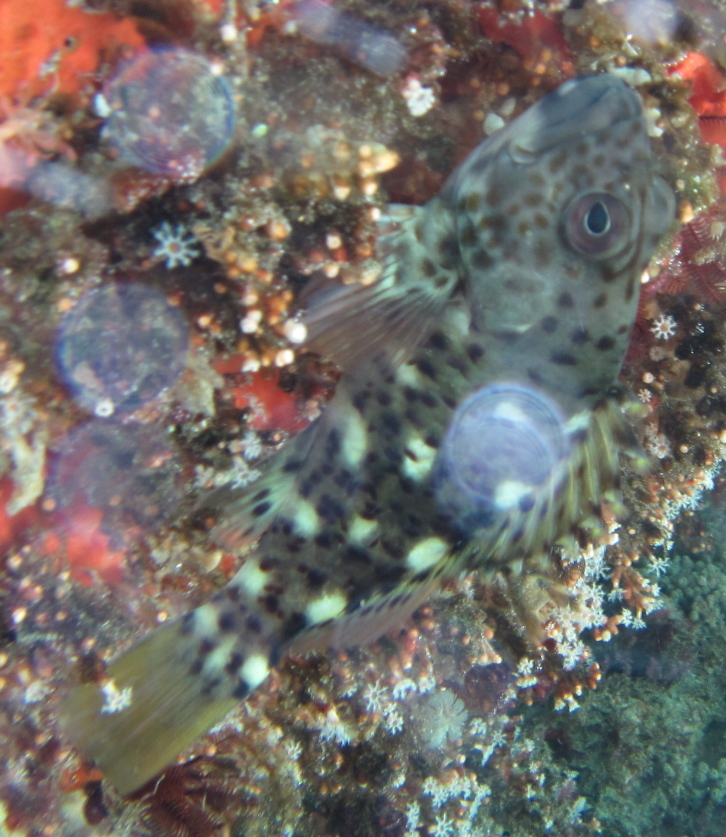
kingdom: Animalia
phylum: Chordata
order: Perciformes
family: Cirrhitidae
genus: Cirrhitus
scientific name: Cirrhitus pinnulatus
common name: Stocky hawkfish
